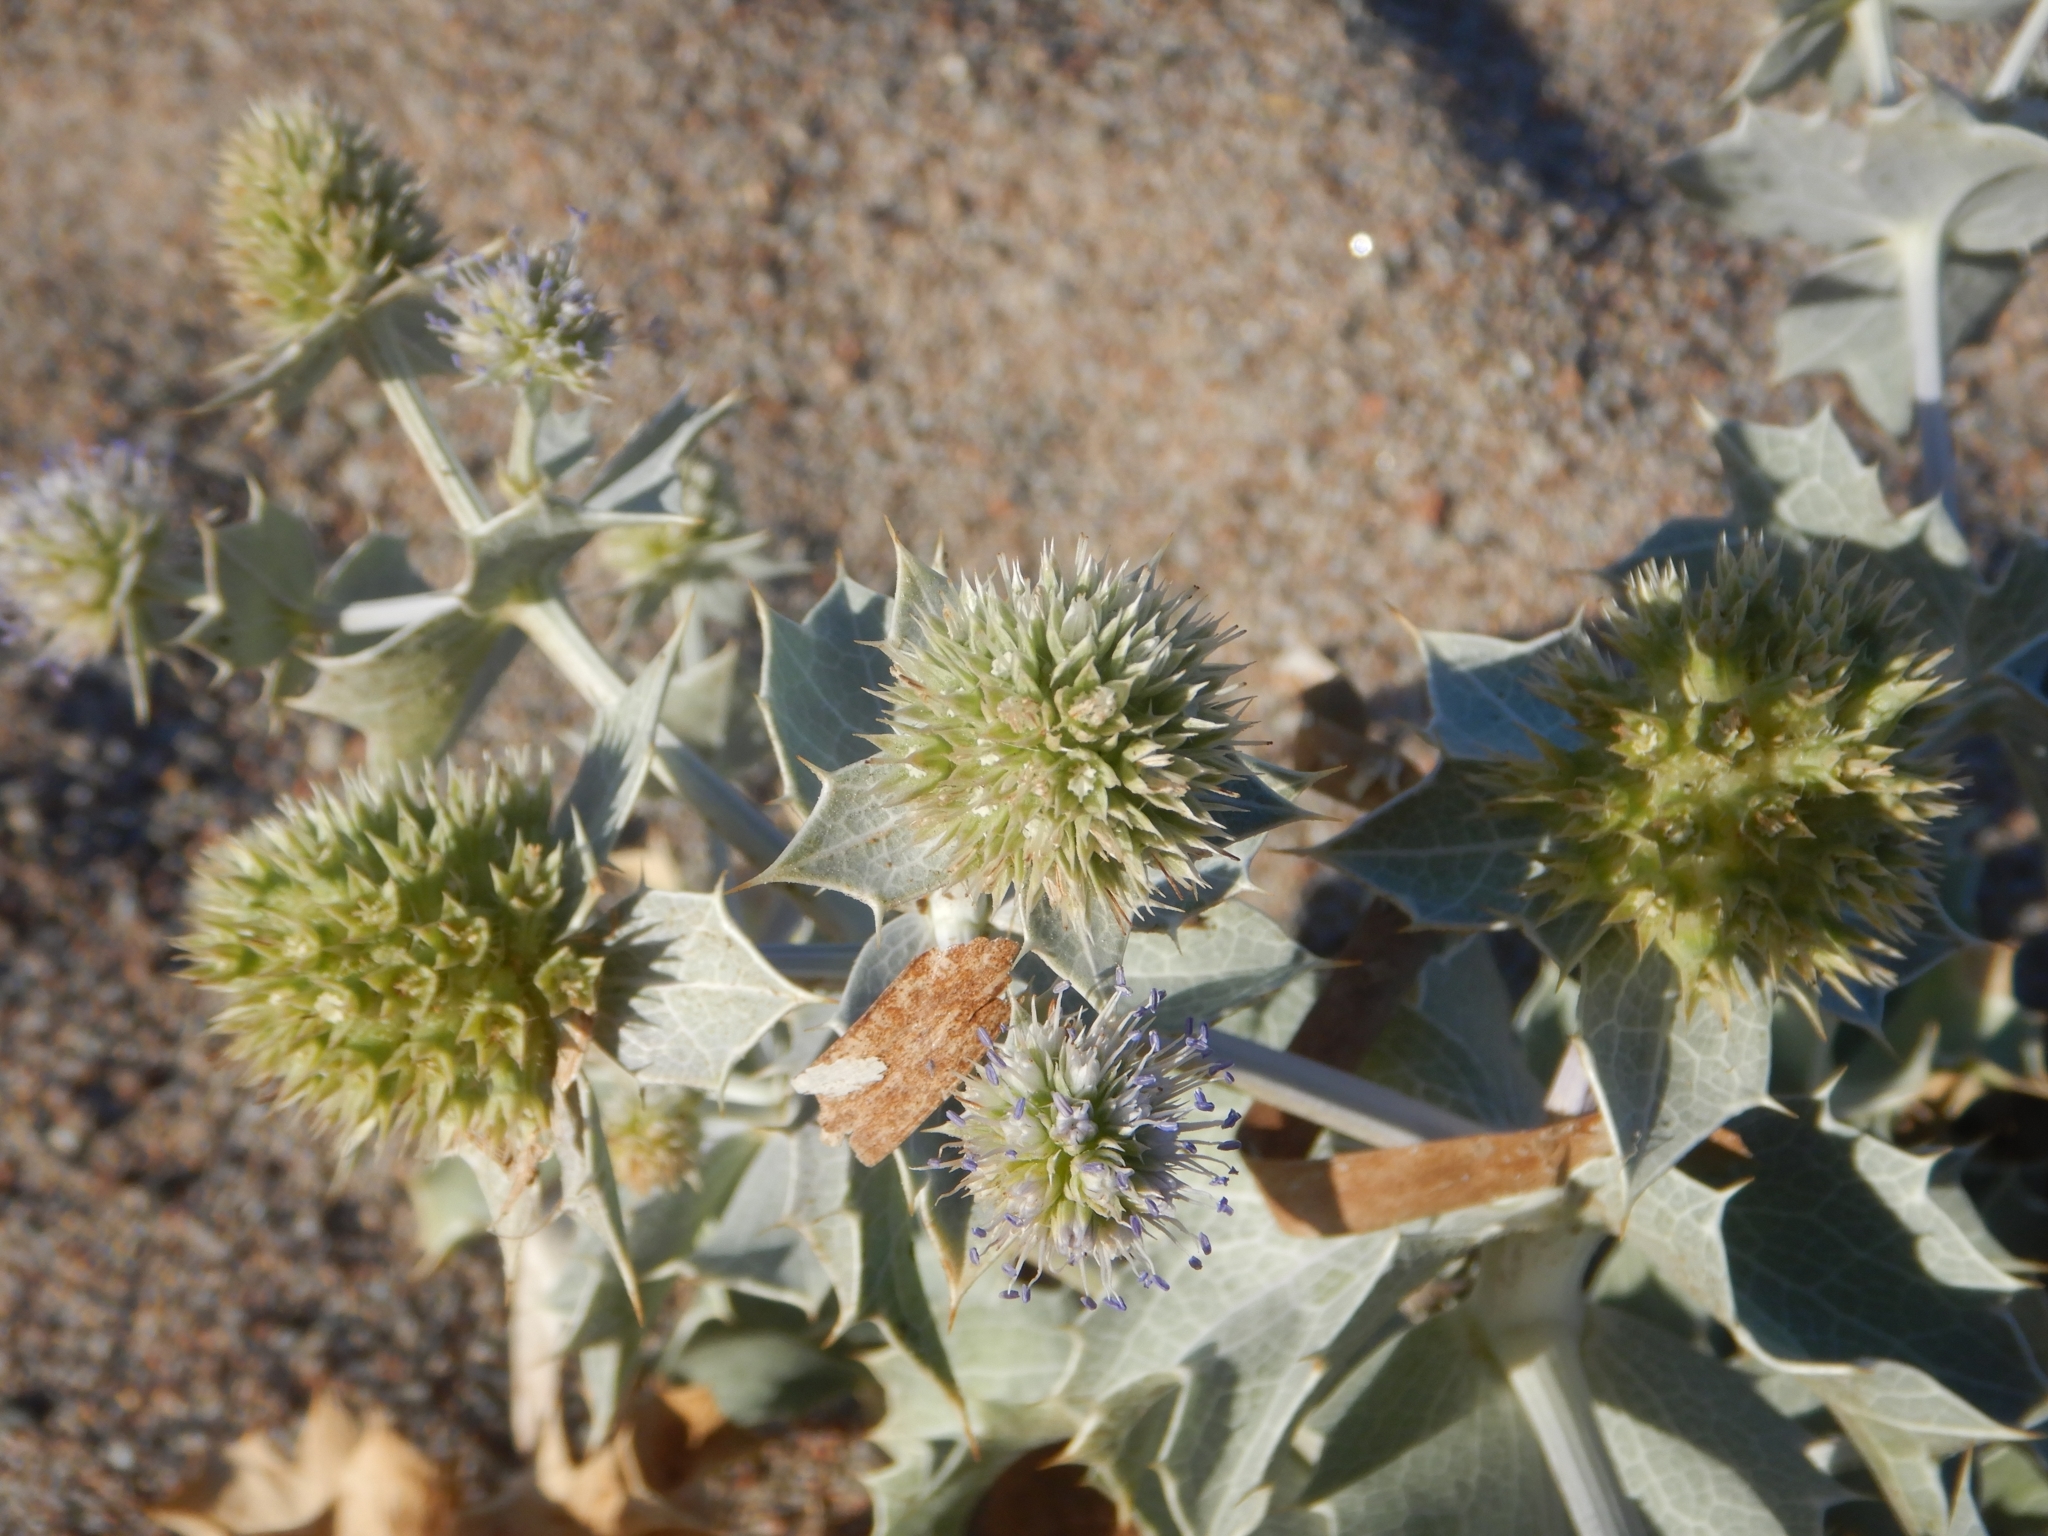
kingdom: Plantae
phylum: Tracheophyta
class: Magnoliopsida
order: Apiales
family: Apiaceae
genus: Eryngium
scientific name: Eryngium maritimum
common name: Sea-holly
